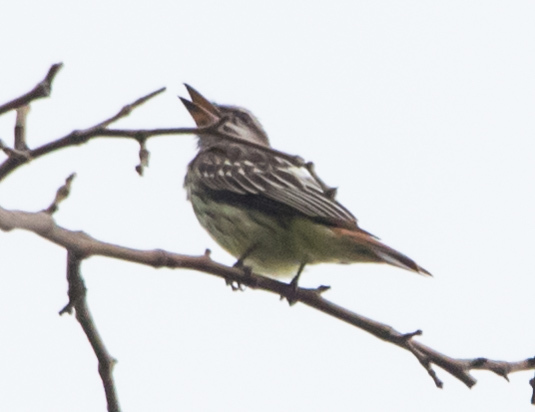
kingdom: Animalia
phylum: Chordata
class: Aves
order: Passeriformes
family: Tyrannidae
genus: Myiodynastes
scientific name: Myiodynastes luteiventris
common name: Sulphur-bellied flycatcher
